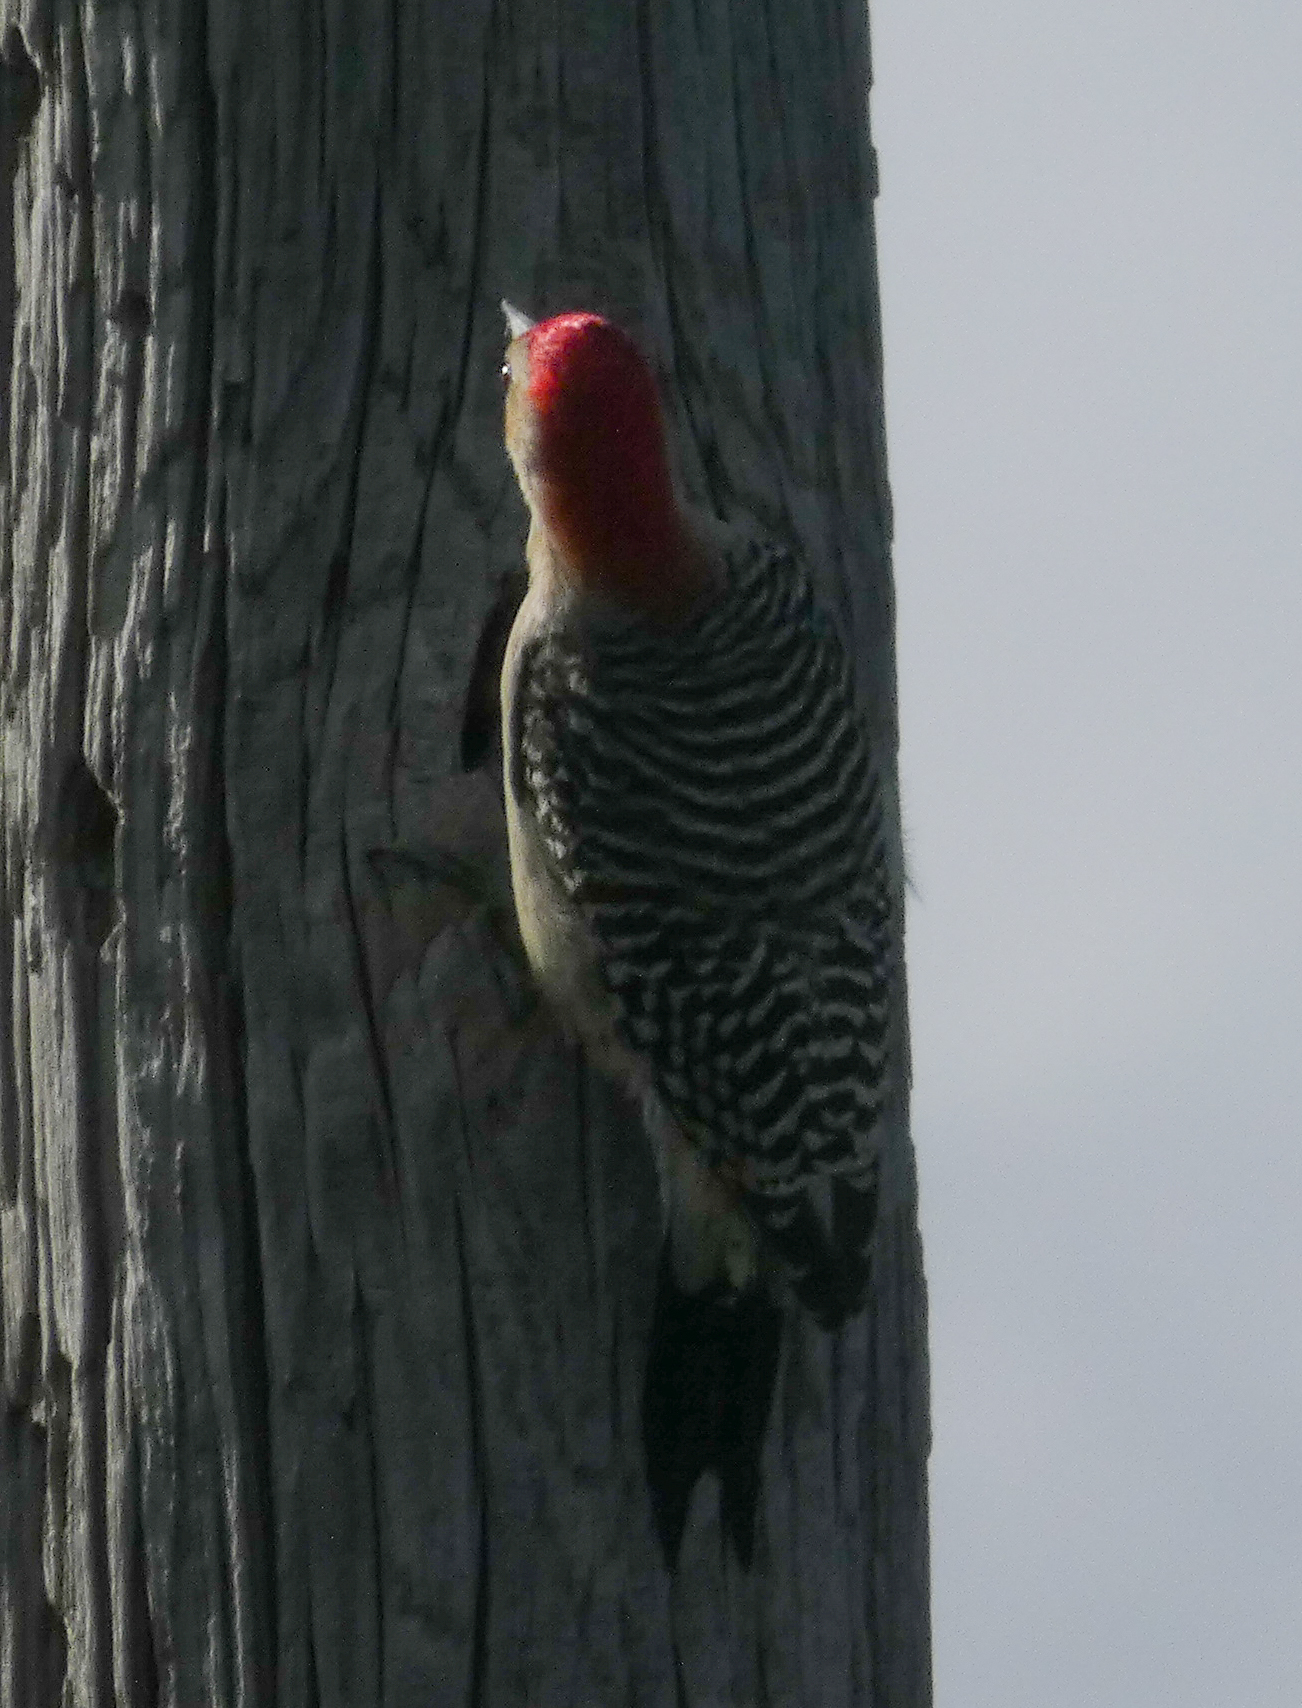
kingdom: Animalia
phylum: Chordata
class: Aves
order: Piciformes
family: Picidae
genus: Melanerpes
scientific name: Melanerpes carolinus
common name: Red-bellied woodpecker
